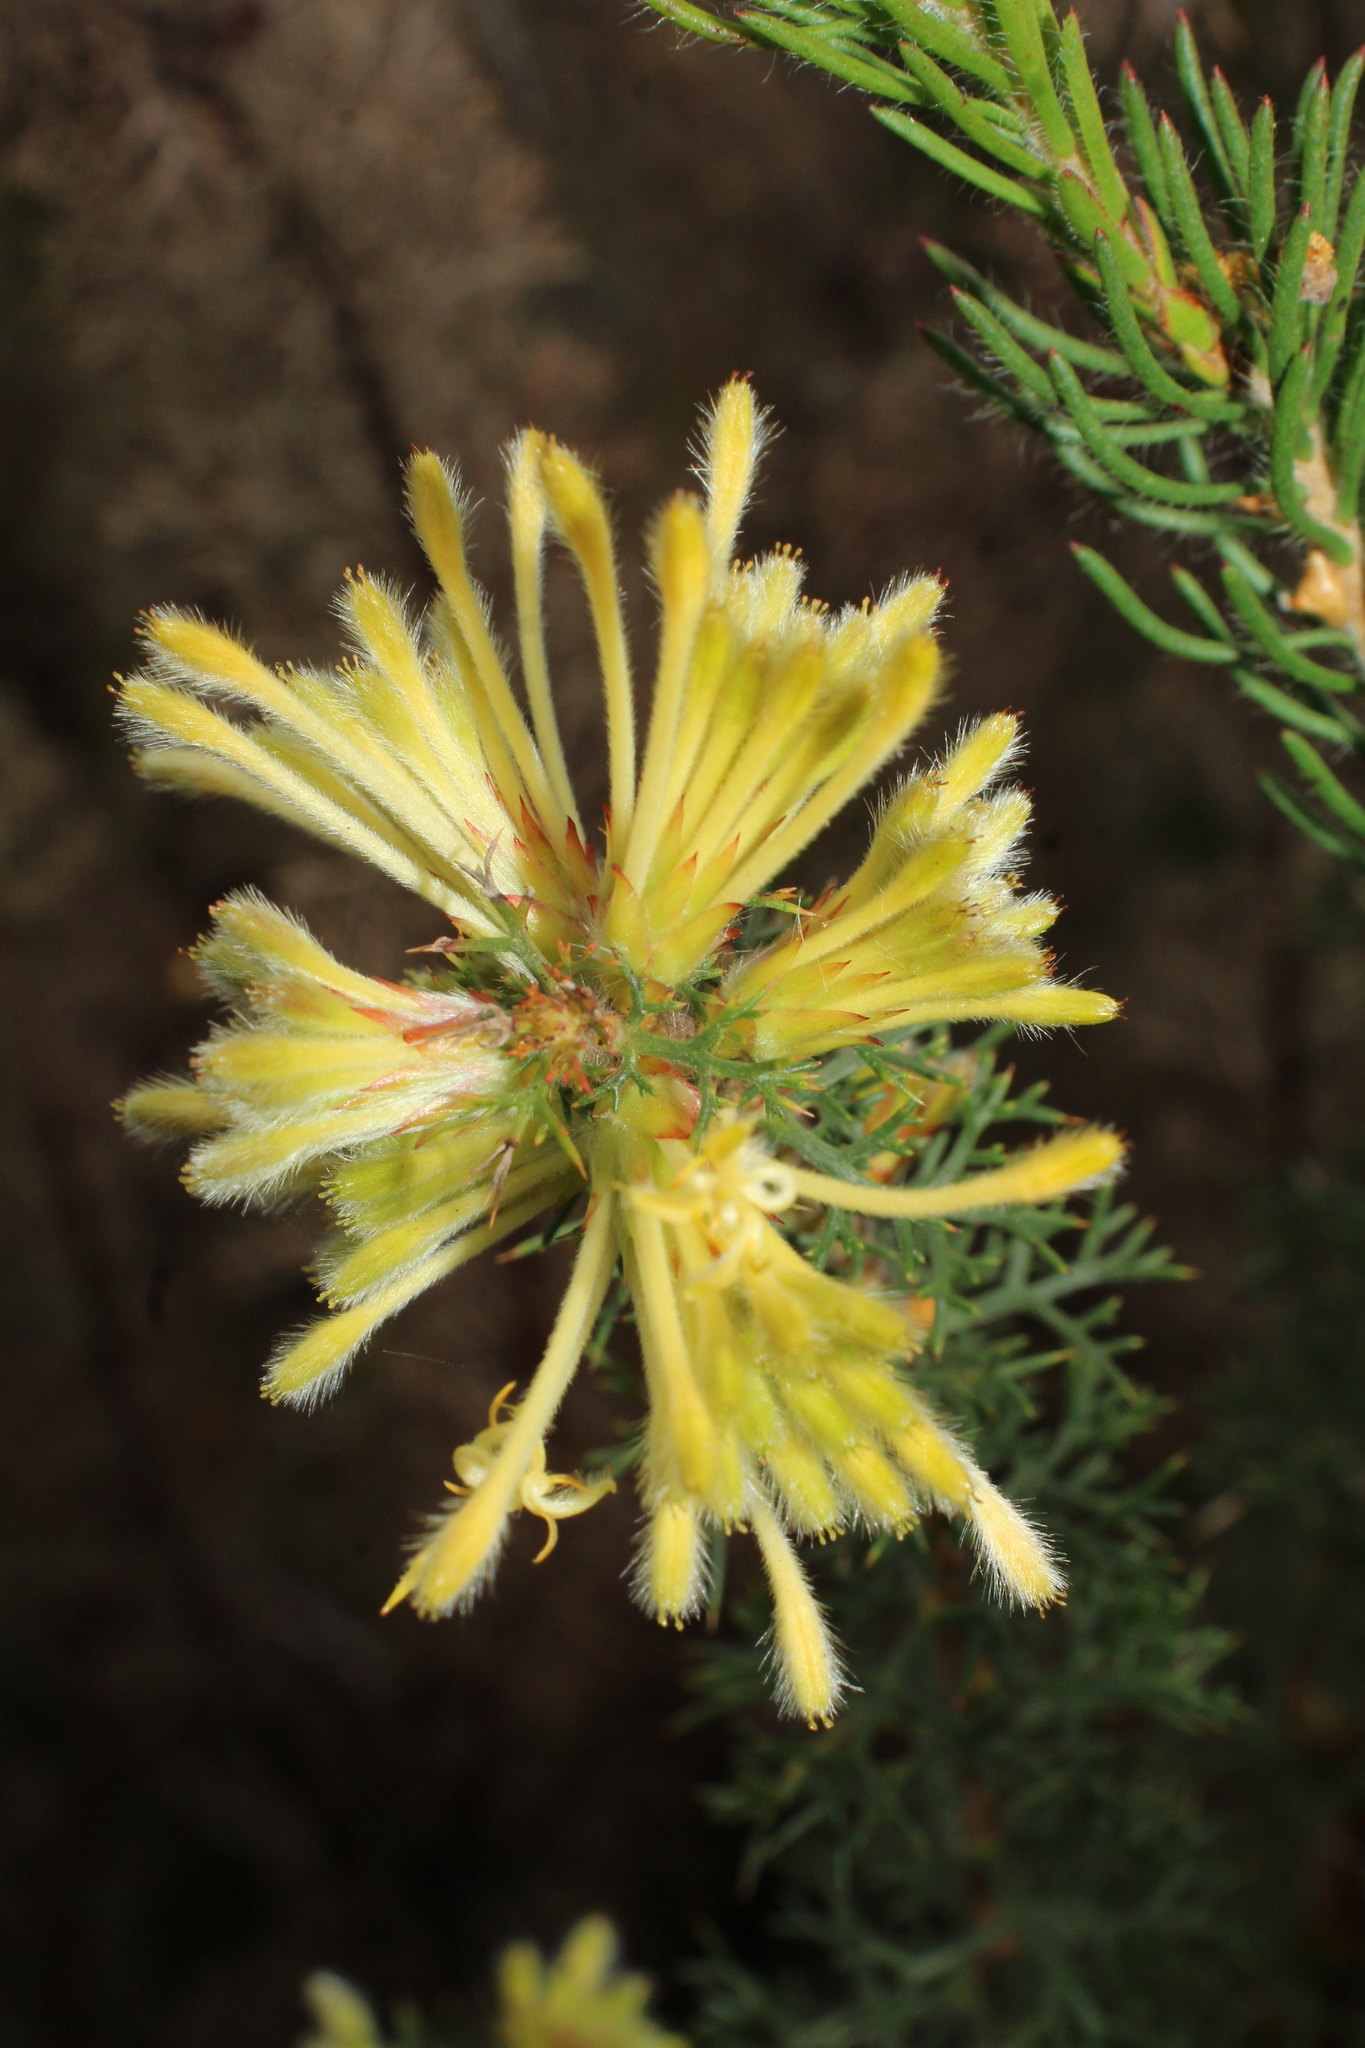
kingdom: Plantae
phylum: Tracheophyta
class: Magnoliopsida
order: Proteales
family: Proteaceae
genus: Petrophile
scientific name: Petrophile serruriae
